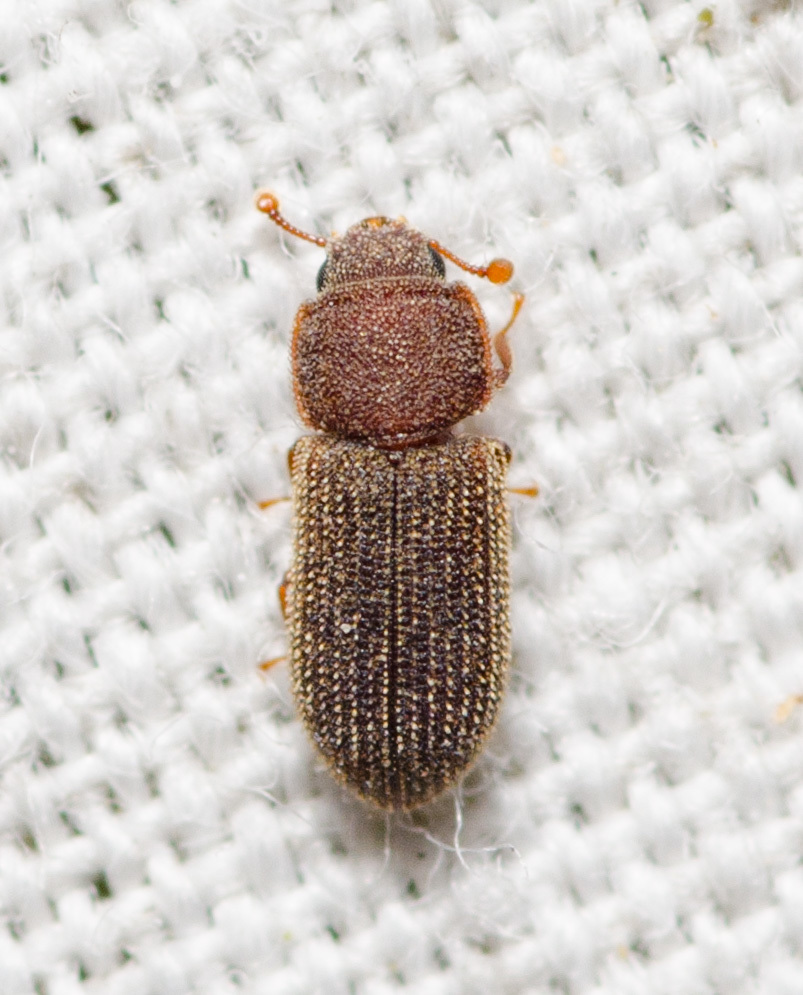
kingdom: Animalia
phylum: Arthropoda
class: Insecta
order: Coleoptera
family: Zopheridae
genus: Synchita
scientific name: Synchita fuliginosa
